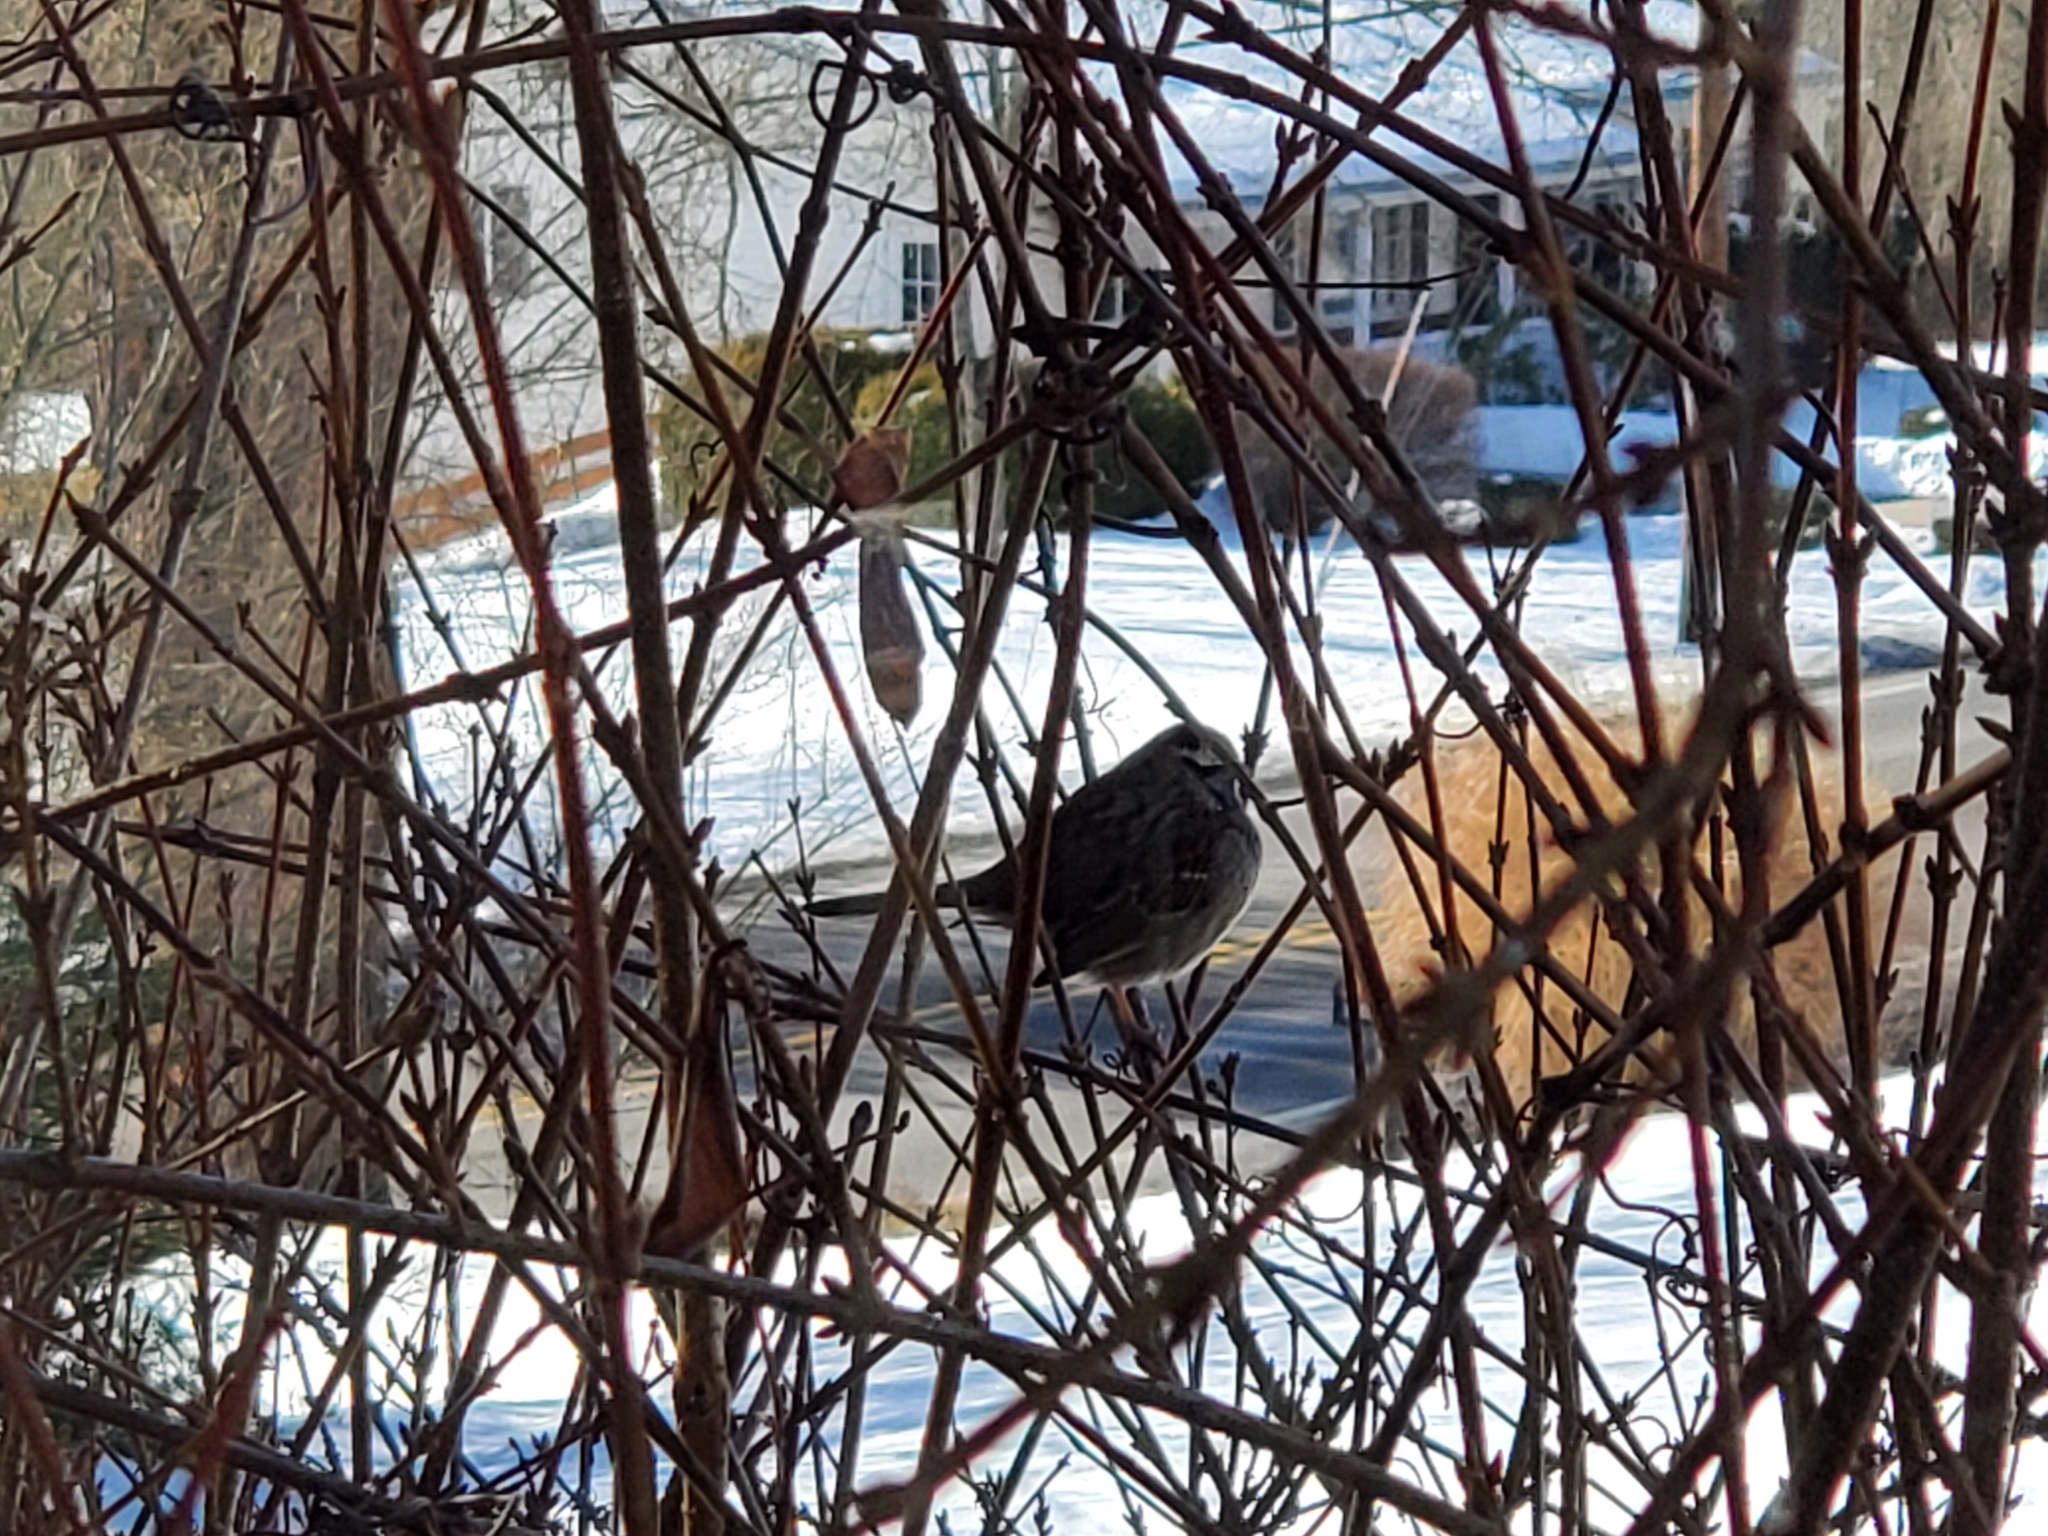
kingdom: Animalia
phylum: Chordata
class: Aves
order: Passeriformes
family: Passerellidae
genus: Zonotrichia
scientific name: Zonotrichia albicollis
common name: White-throated sparrow
